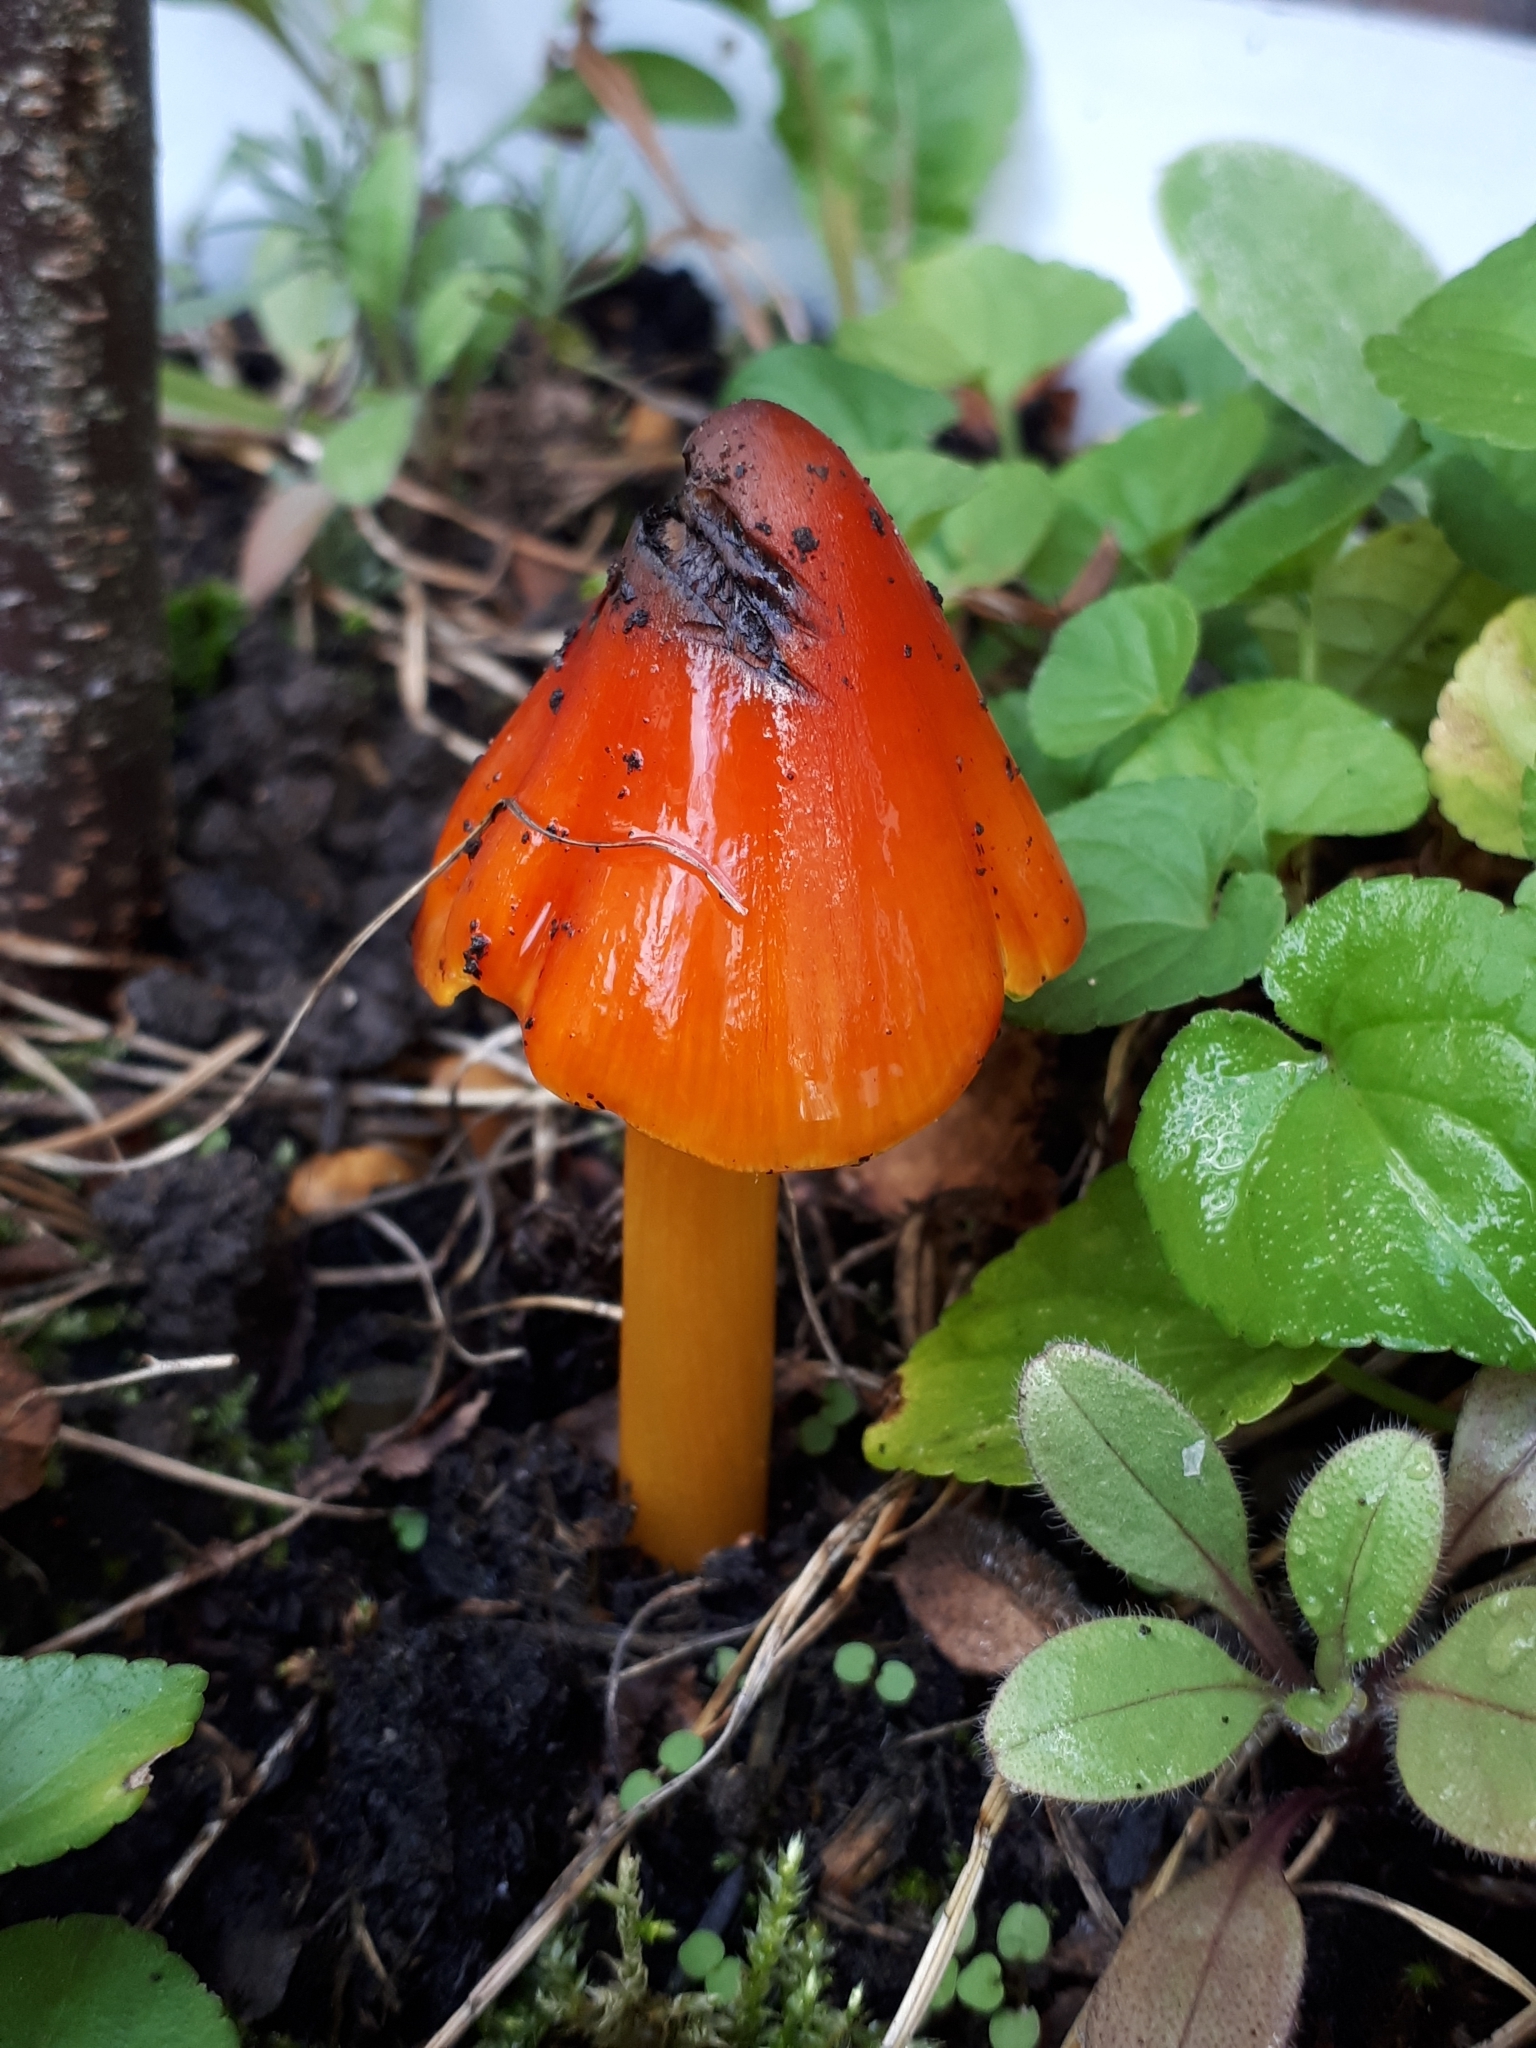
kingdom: Fungi
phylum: Basidiomycota
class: Agaricomycetes
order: Agaricales
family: Hygrophoraceae
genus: Hygrocybe
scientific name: Hygrocybe conica
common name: Blackening wax-cap
